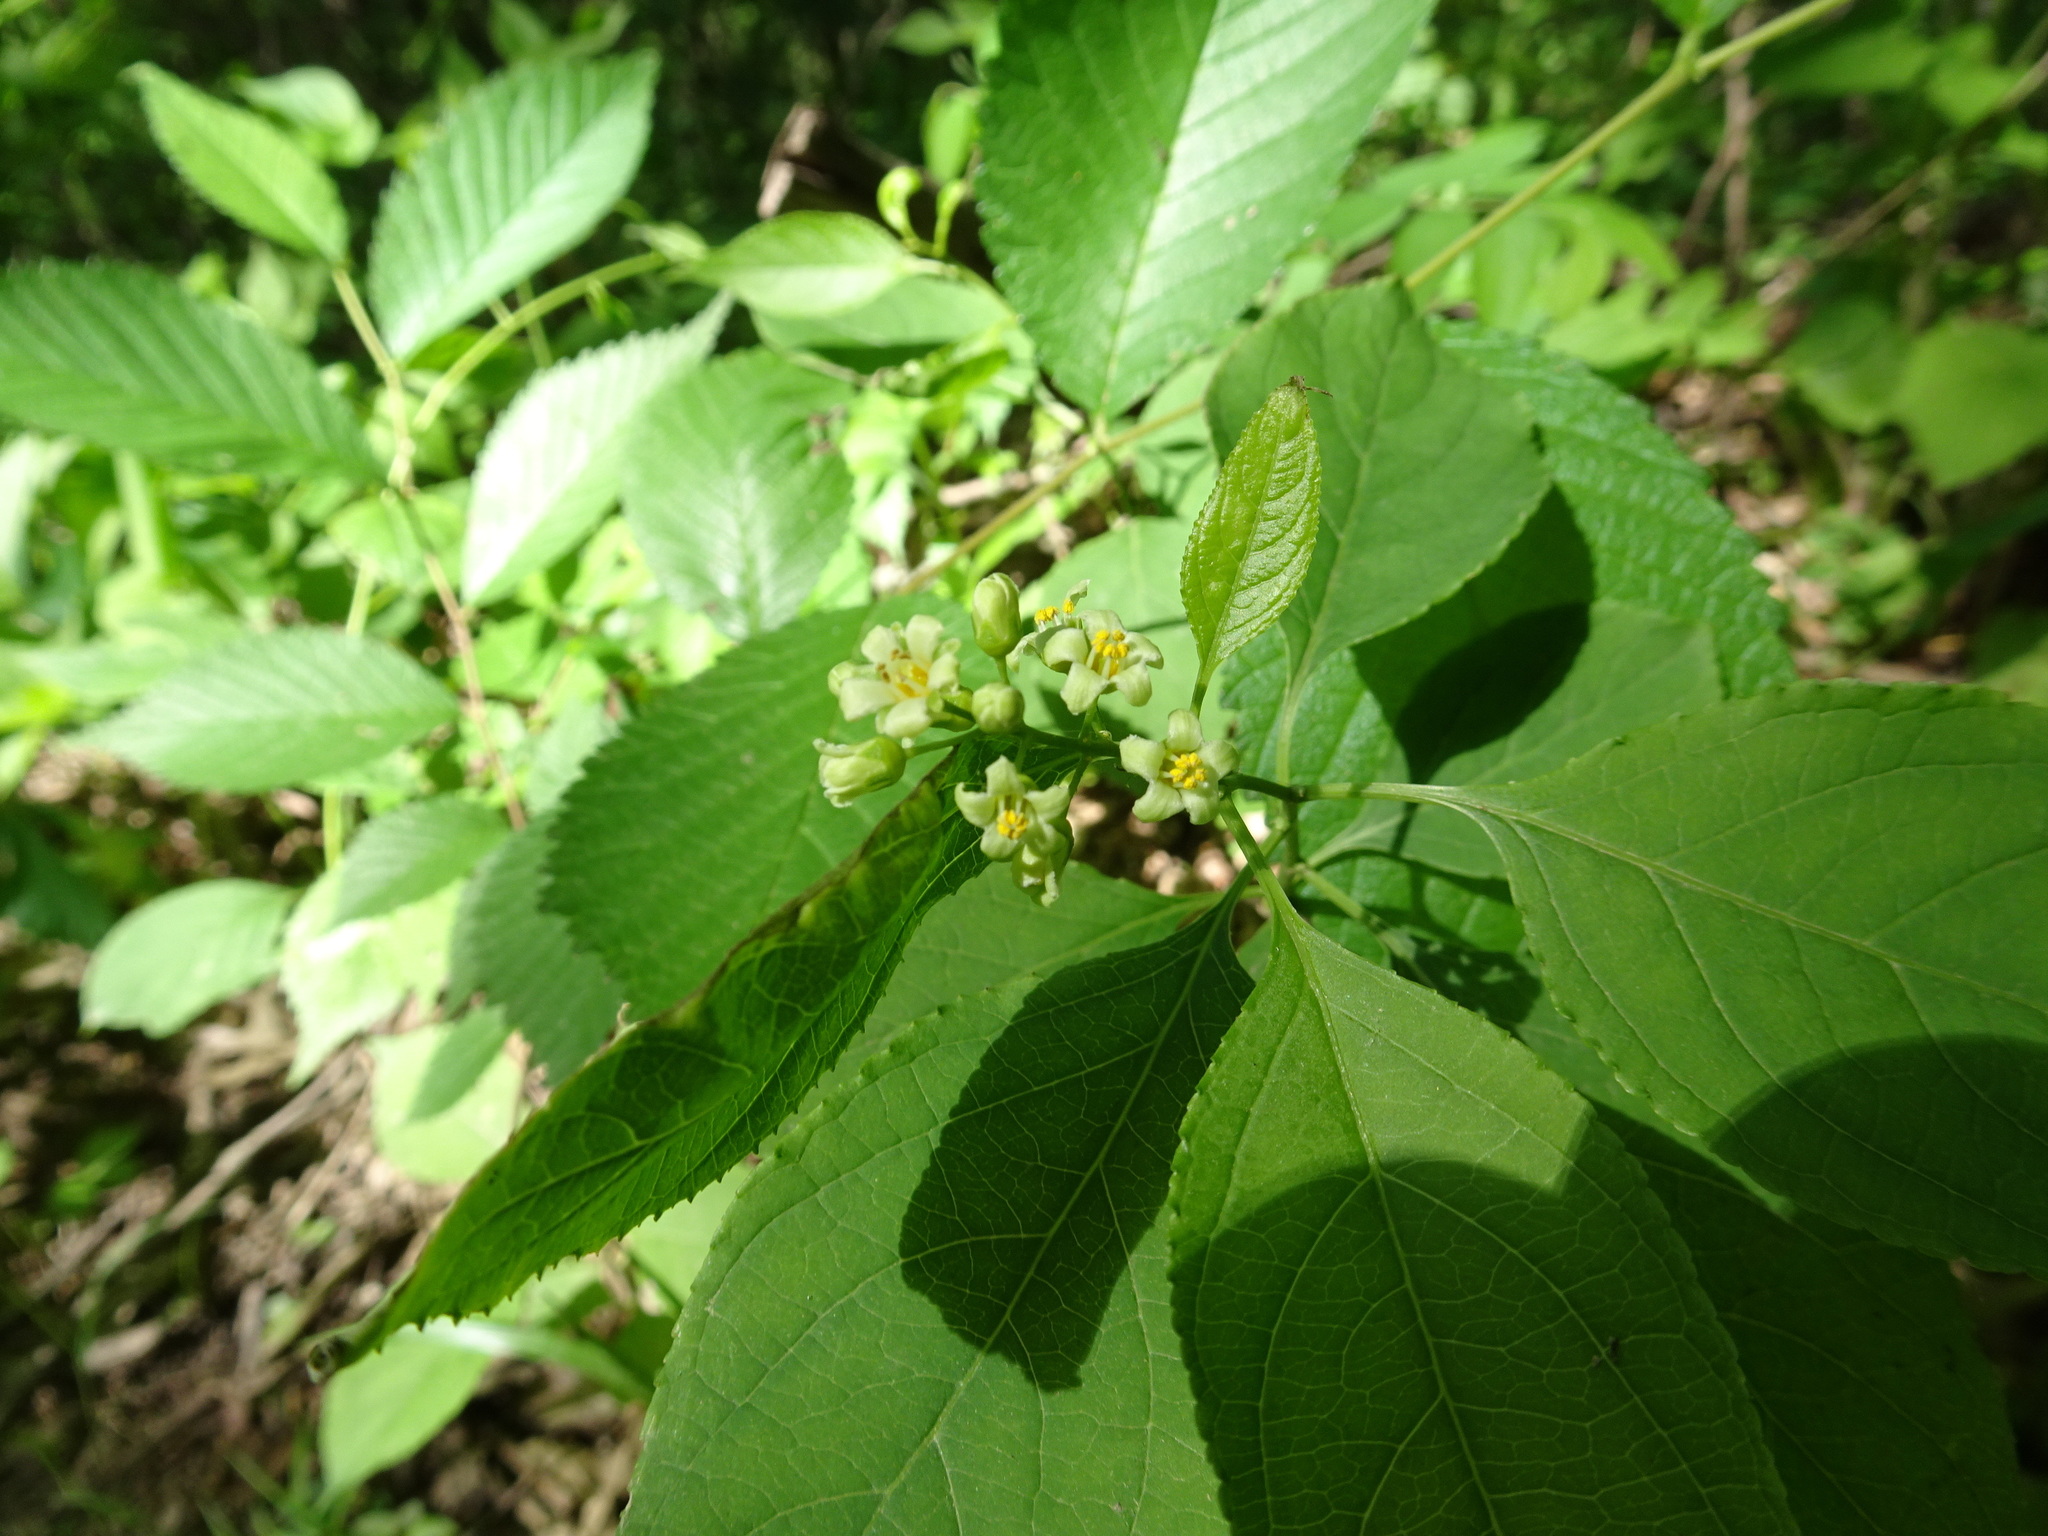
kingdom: Plantae
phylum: Tracheophyta
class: Magnoliopsida
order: Celastrales
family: Celastraceae
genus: Celastrus
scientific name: Celastrus scandens
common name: American bittersweet
